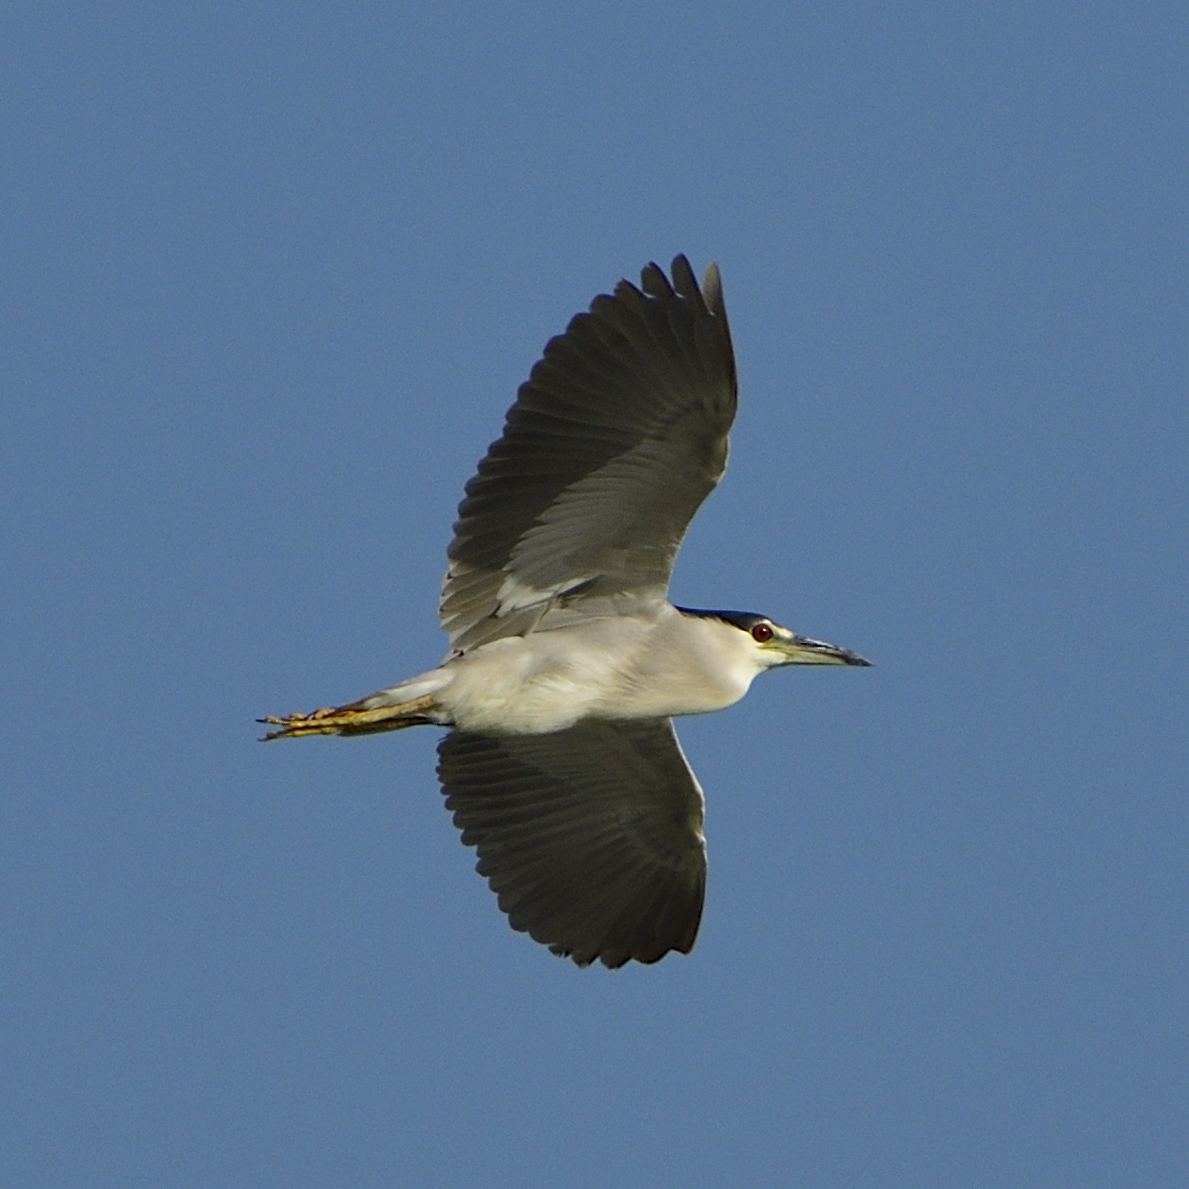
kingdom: Animalia
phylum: Chordata
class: Aves
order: Pelecaniformes
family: Ardeidae
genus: Nycticorax
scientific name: Nycticorax nycticorax
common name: Black-crowned night heron
